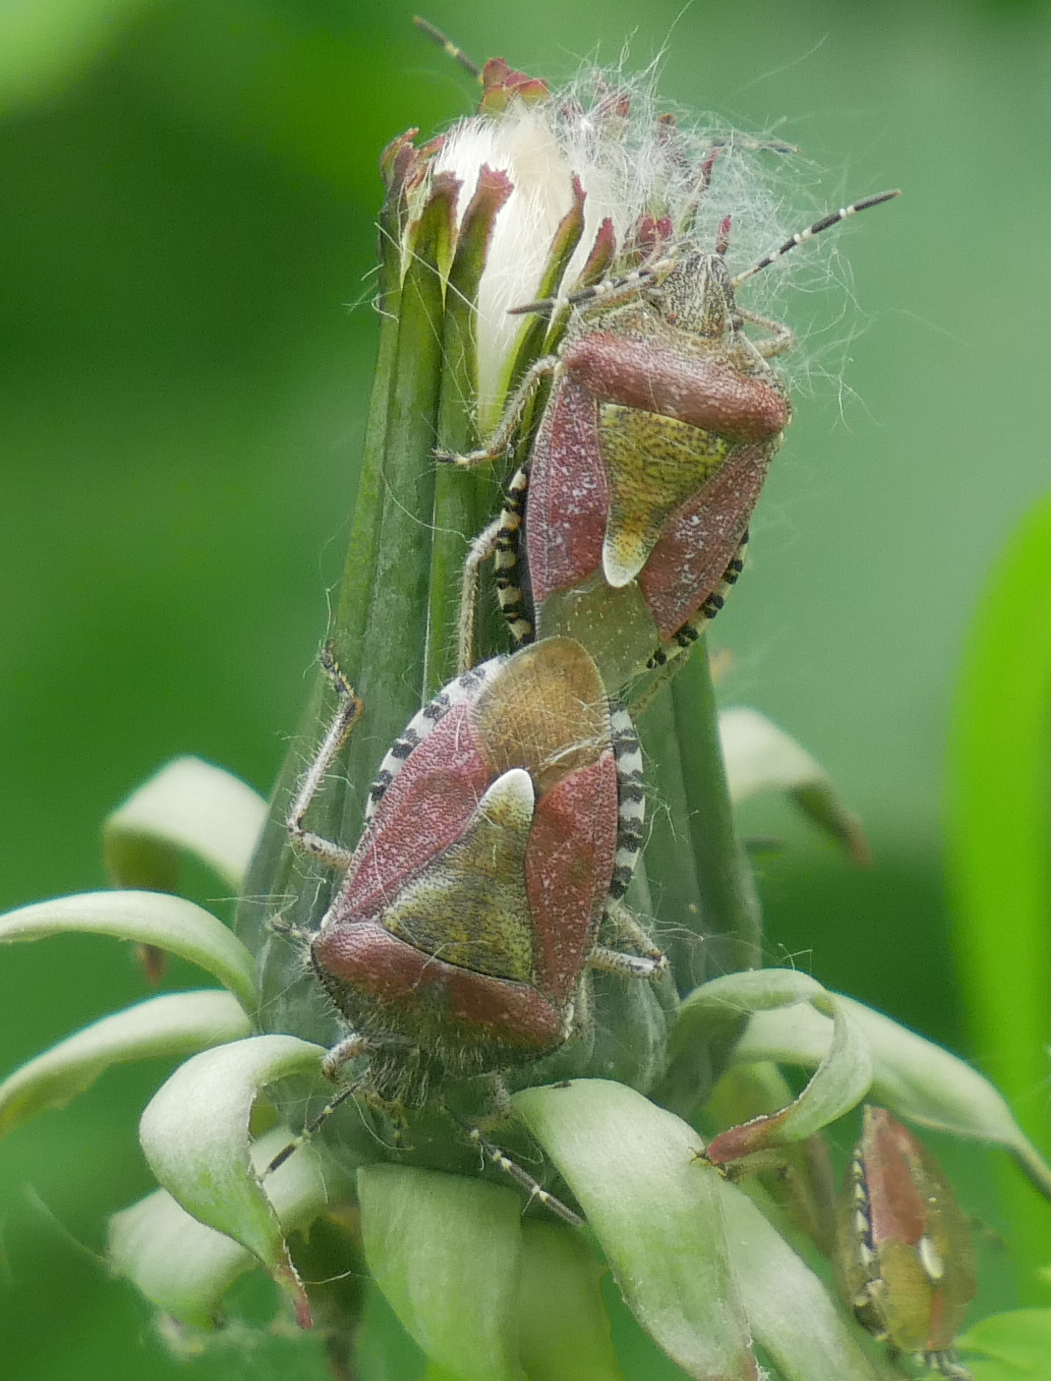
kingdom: Animalia
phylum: Arthropoda
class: Insecta
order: Hemiptera
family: Pentatomidae
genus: Dolycoris
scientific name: Dolycoris baccarum
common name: Sloe bug
